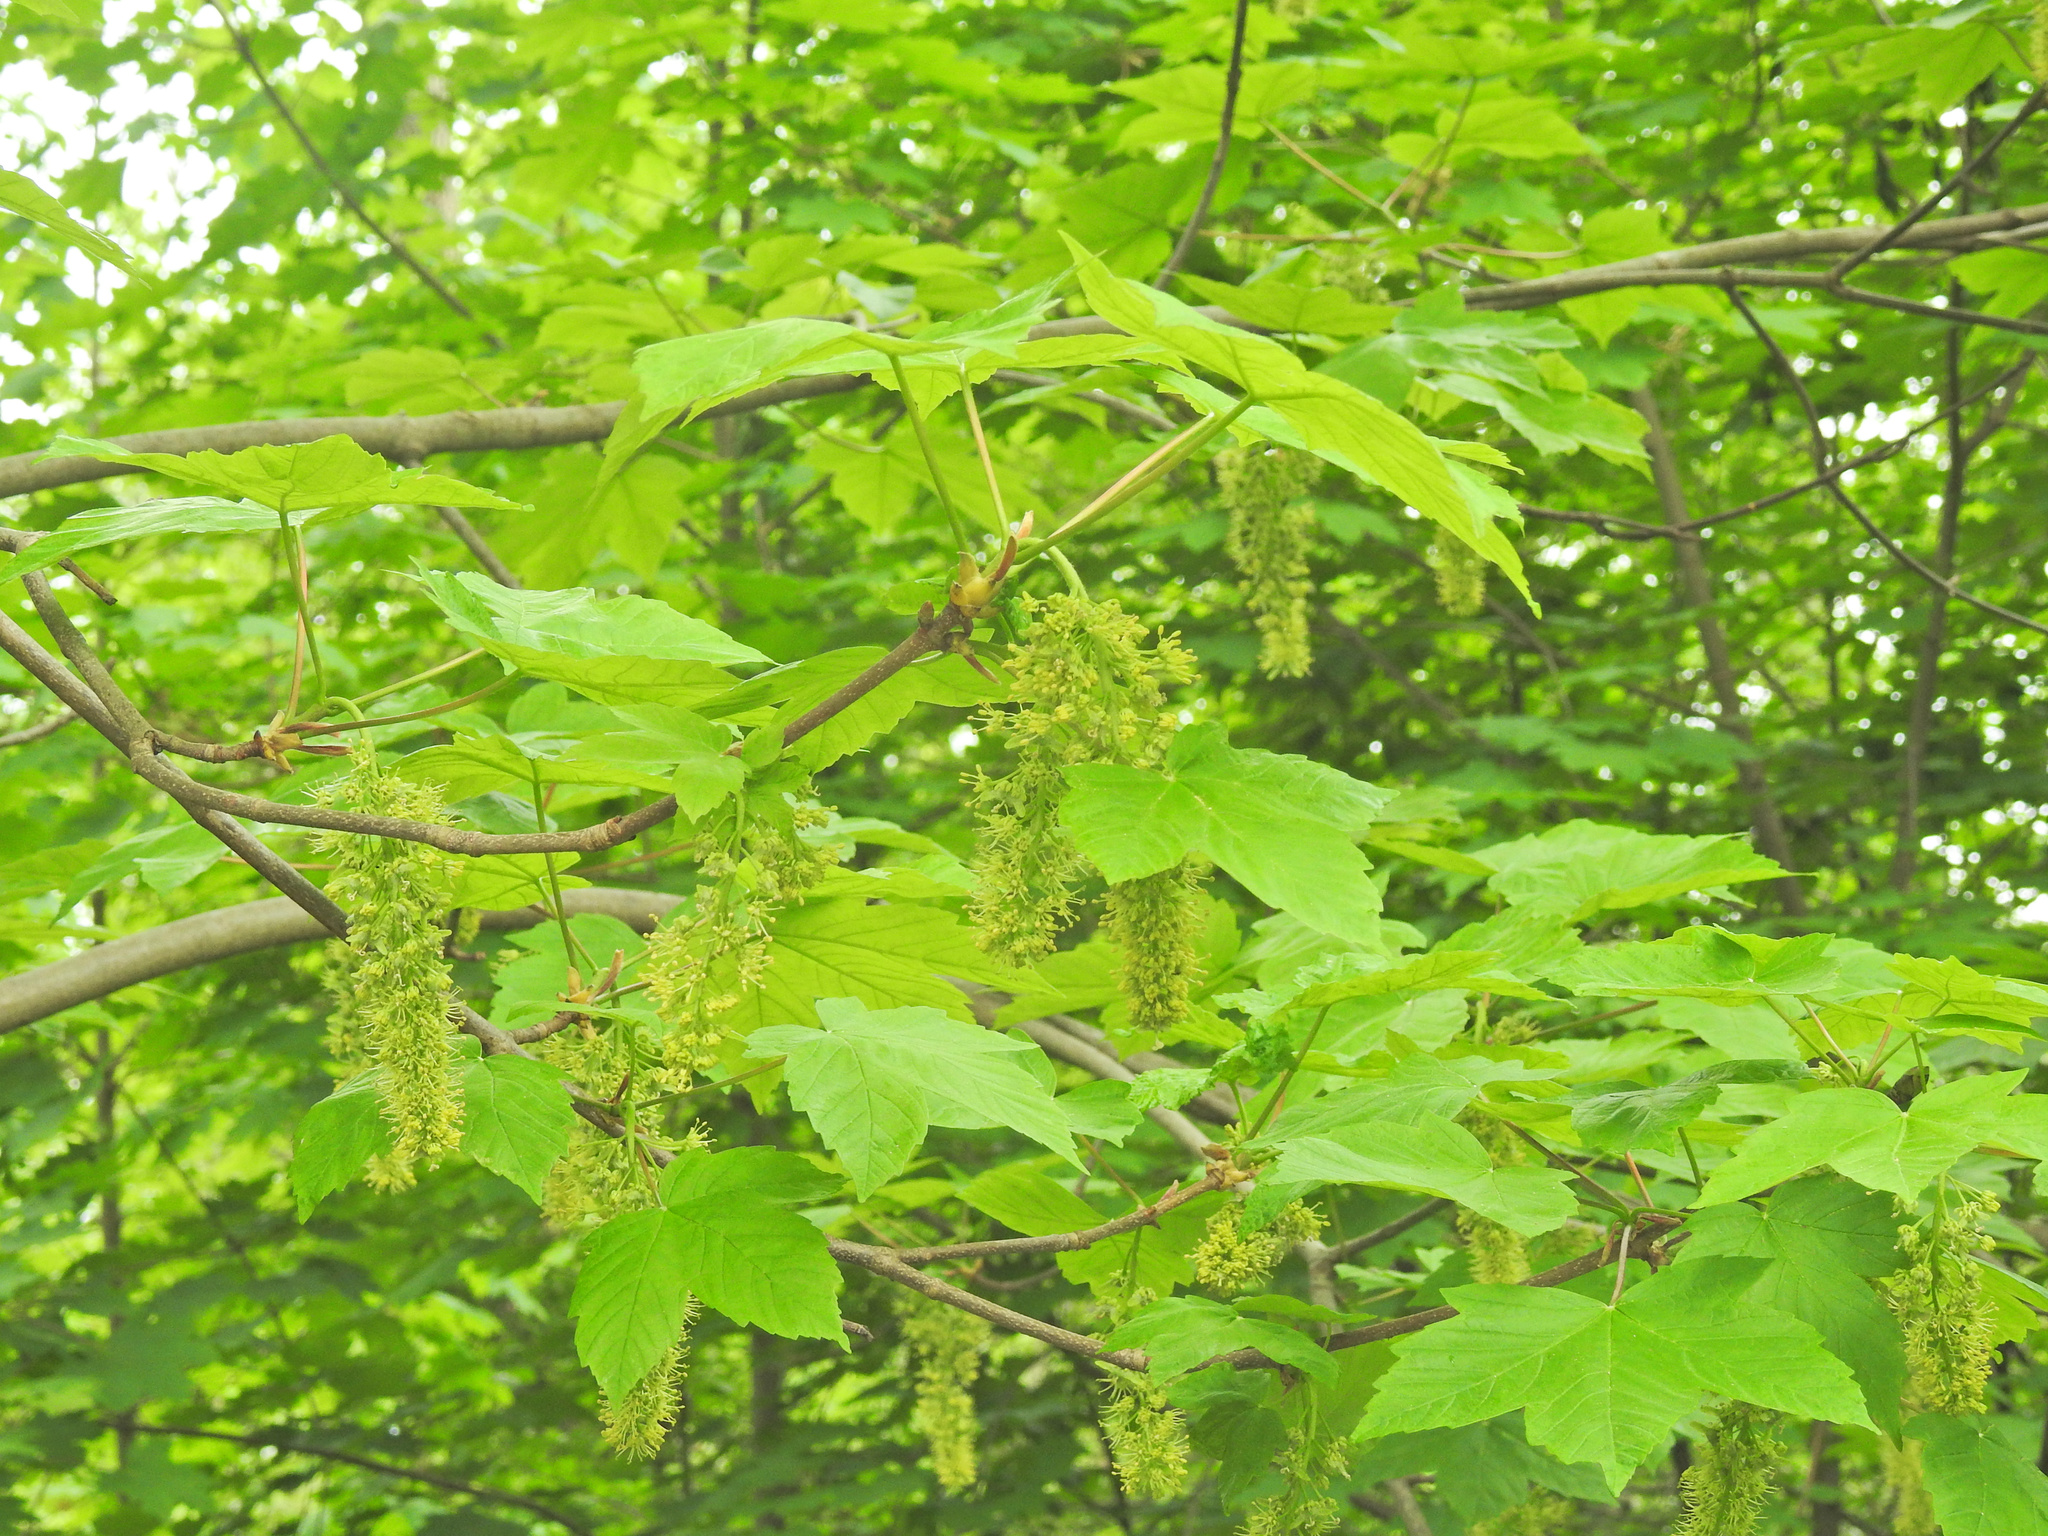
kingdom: Plantae
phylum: Tracheophyta
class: Magnoliopsida
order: Sapindales
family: Sapindaceae
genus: Acer
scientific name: Acer pseudoplatanus
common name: Sycamore
